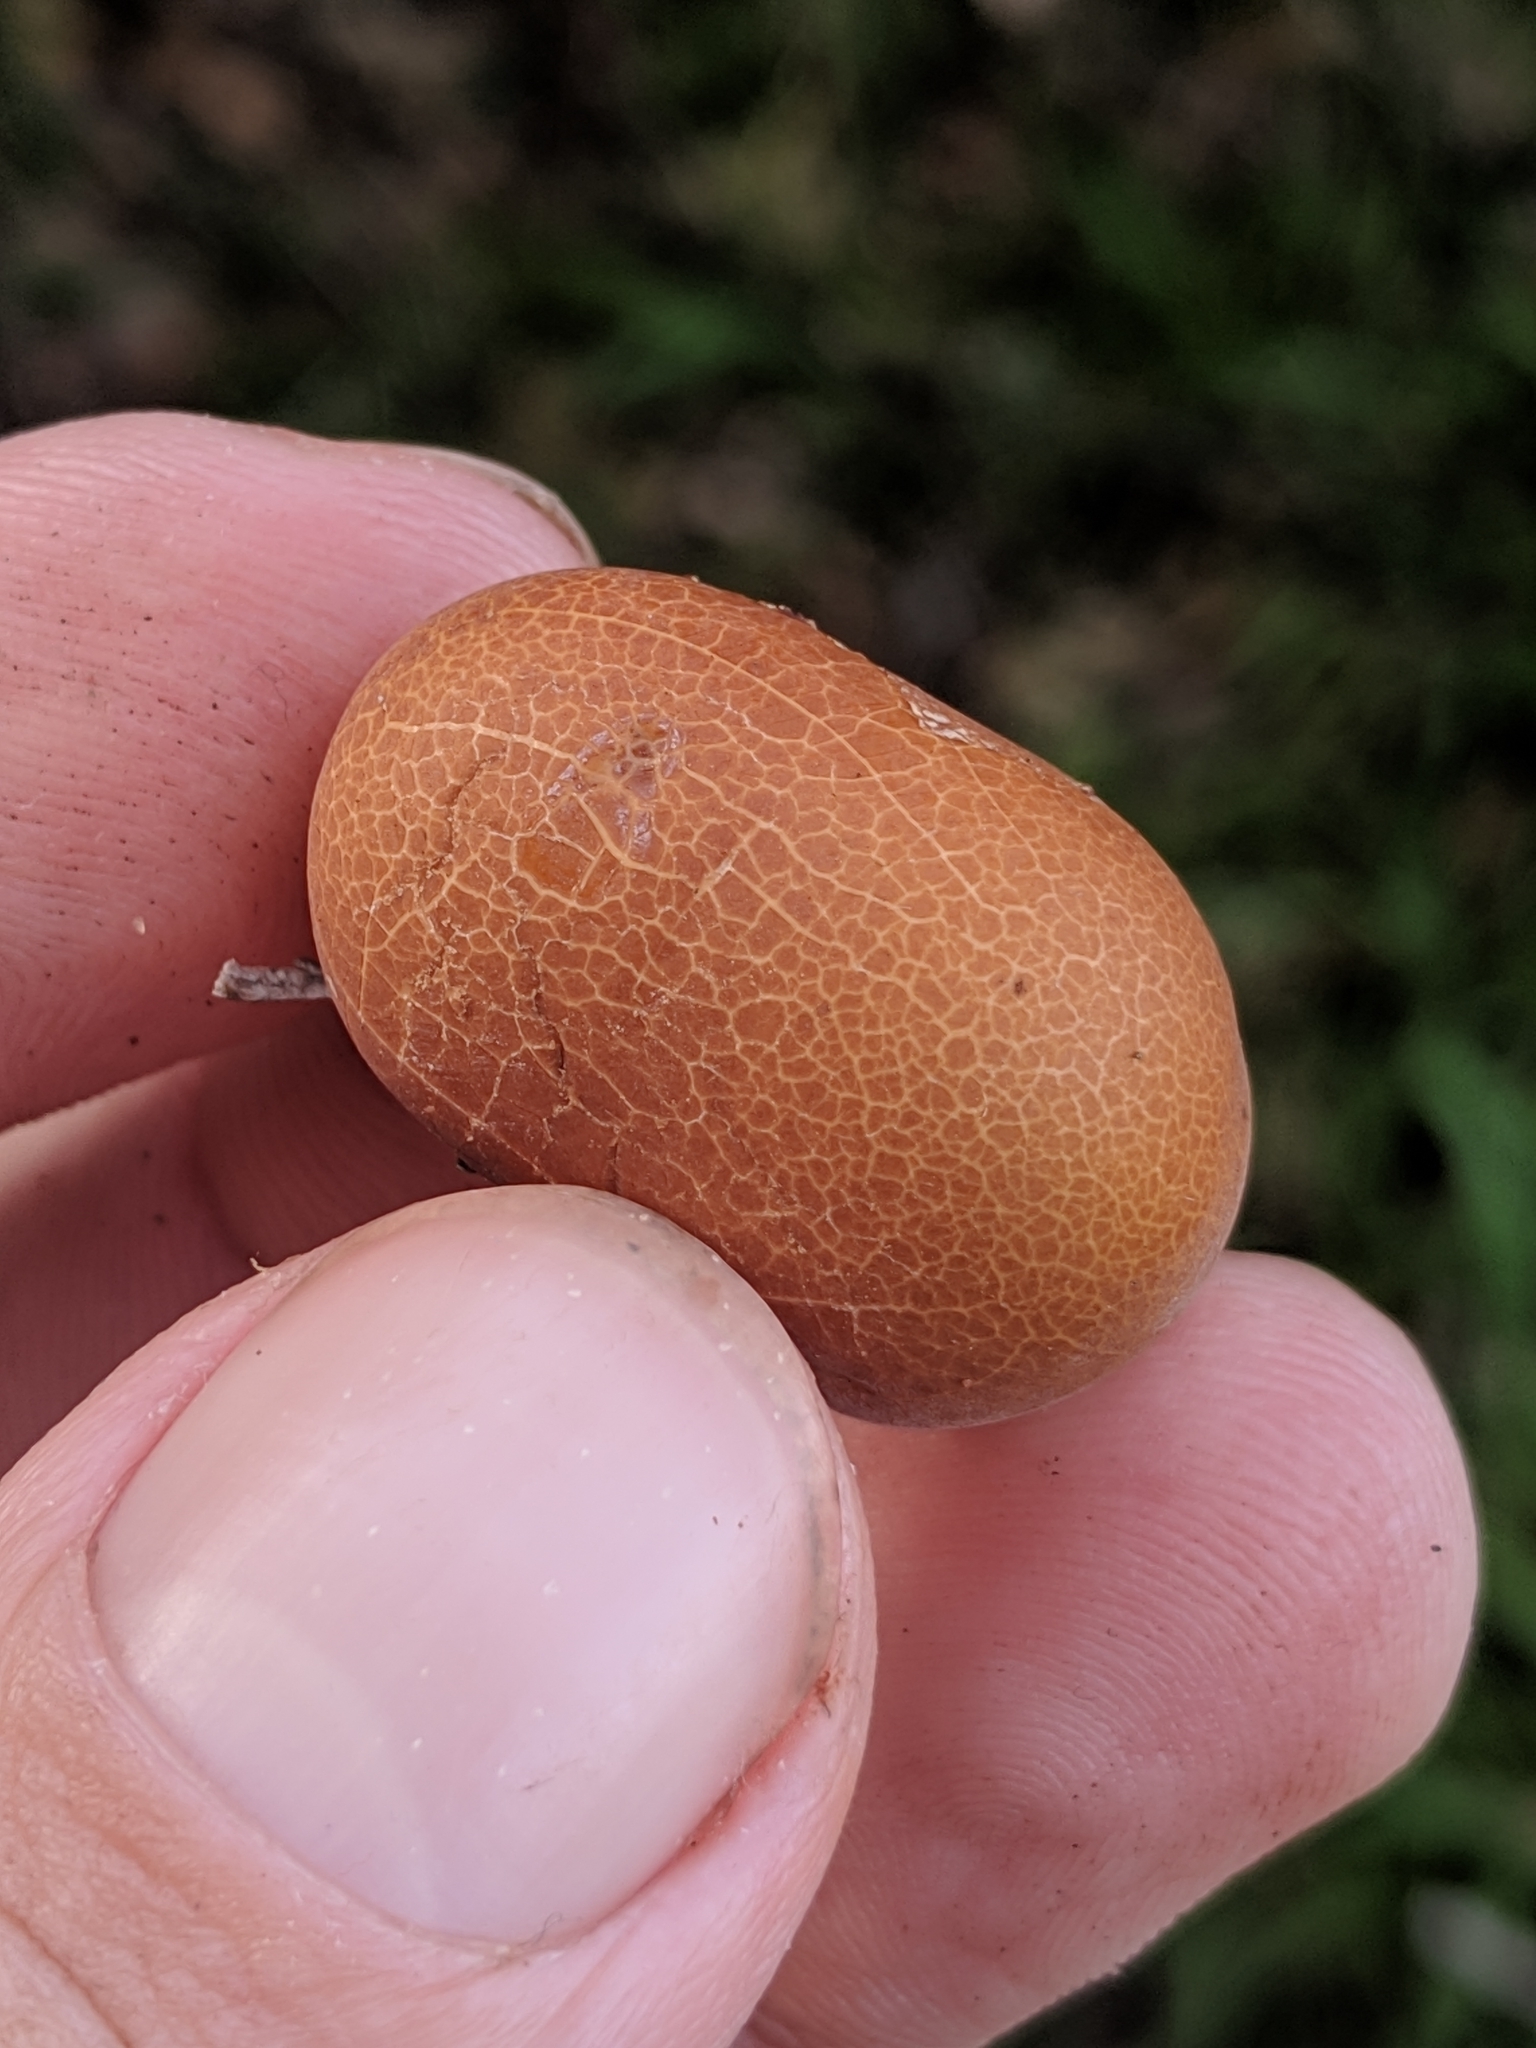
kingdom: Fungi
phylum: Basidiomycota
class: Agaricomycetes
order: Polyporales
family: Polyporaceae
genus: Cryptoporus
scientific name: Cryptoporus volvatus
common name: Veiled polypore
